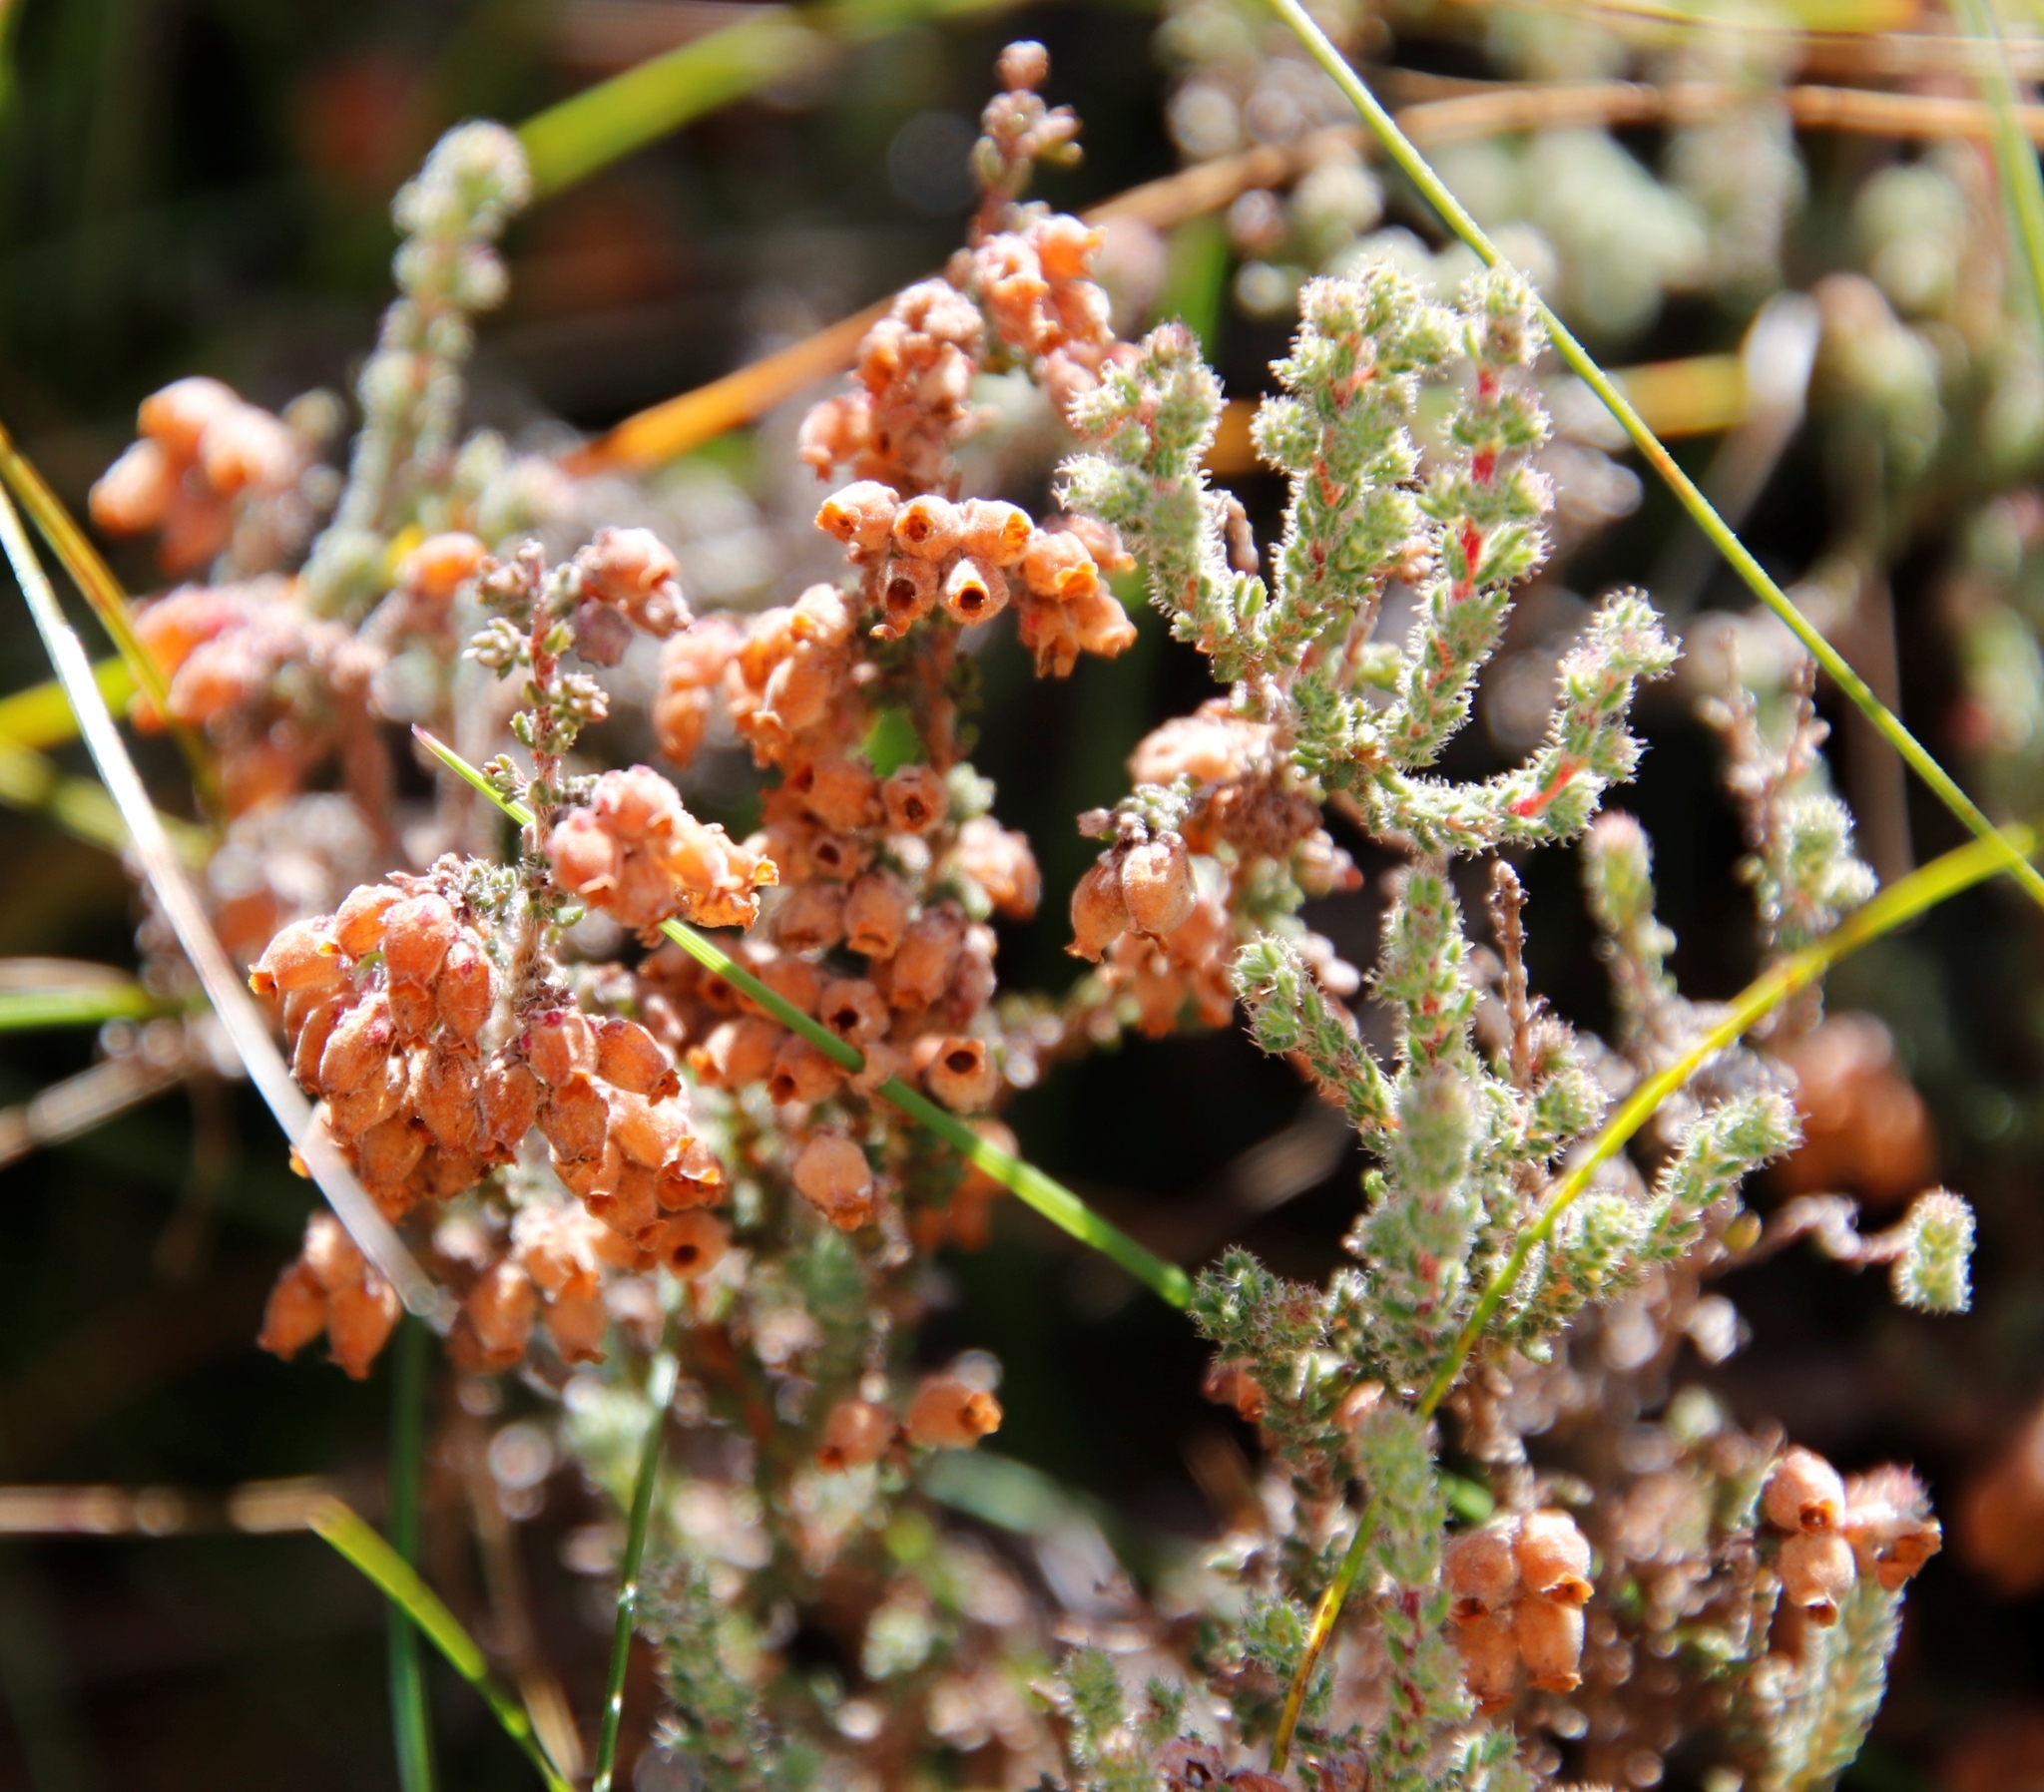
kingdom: Plantae
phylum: Tracheophyta
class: Magnoliopsida
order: Ericales
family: Ericaceae
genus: Erica
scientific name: Erica frigida
